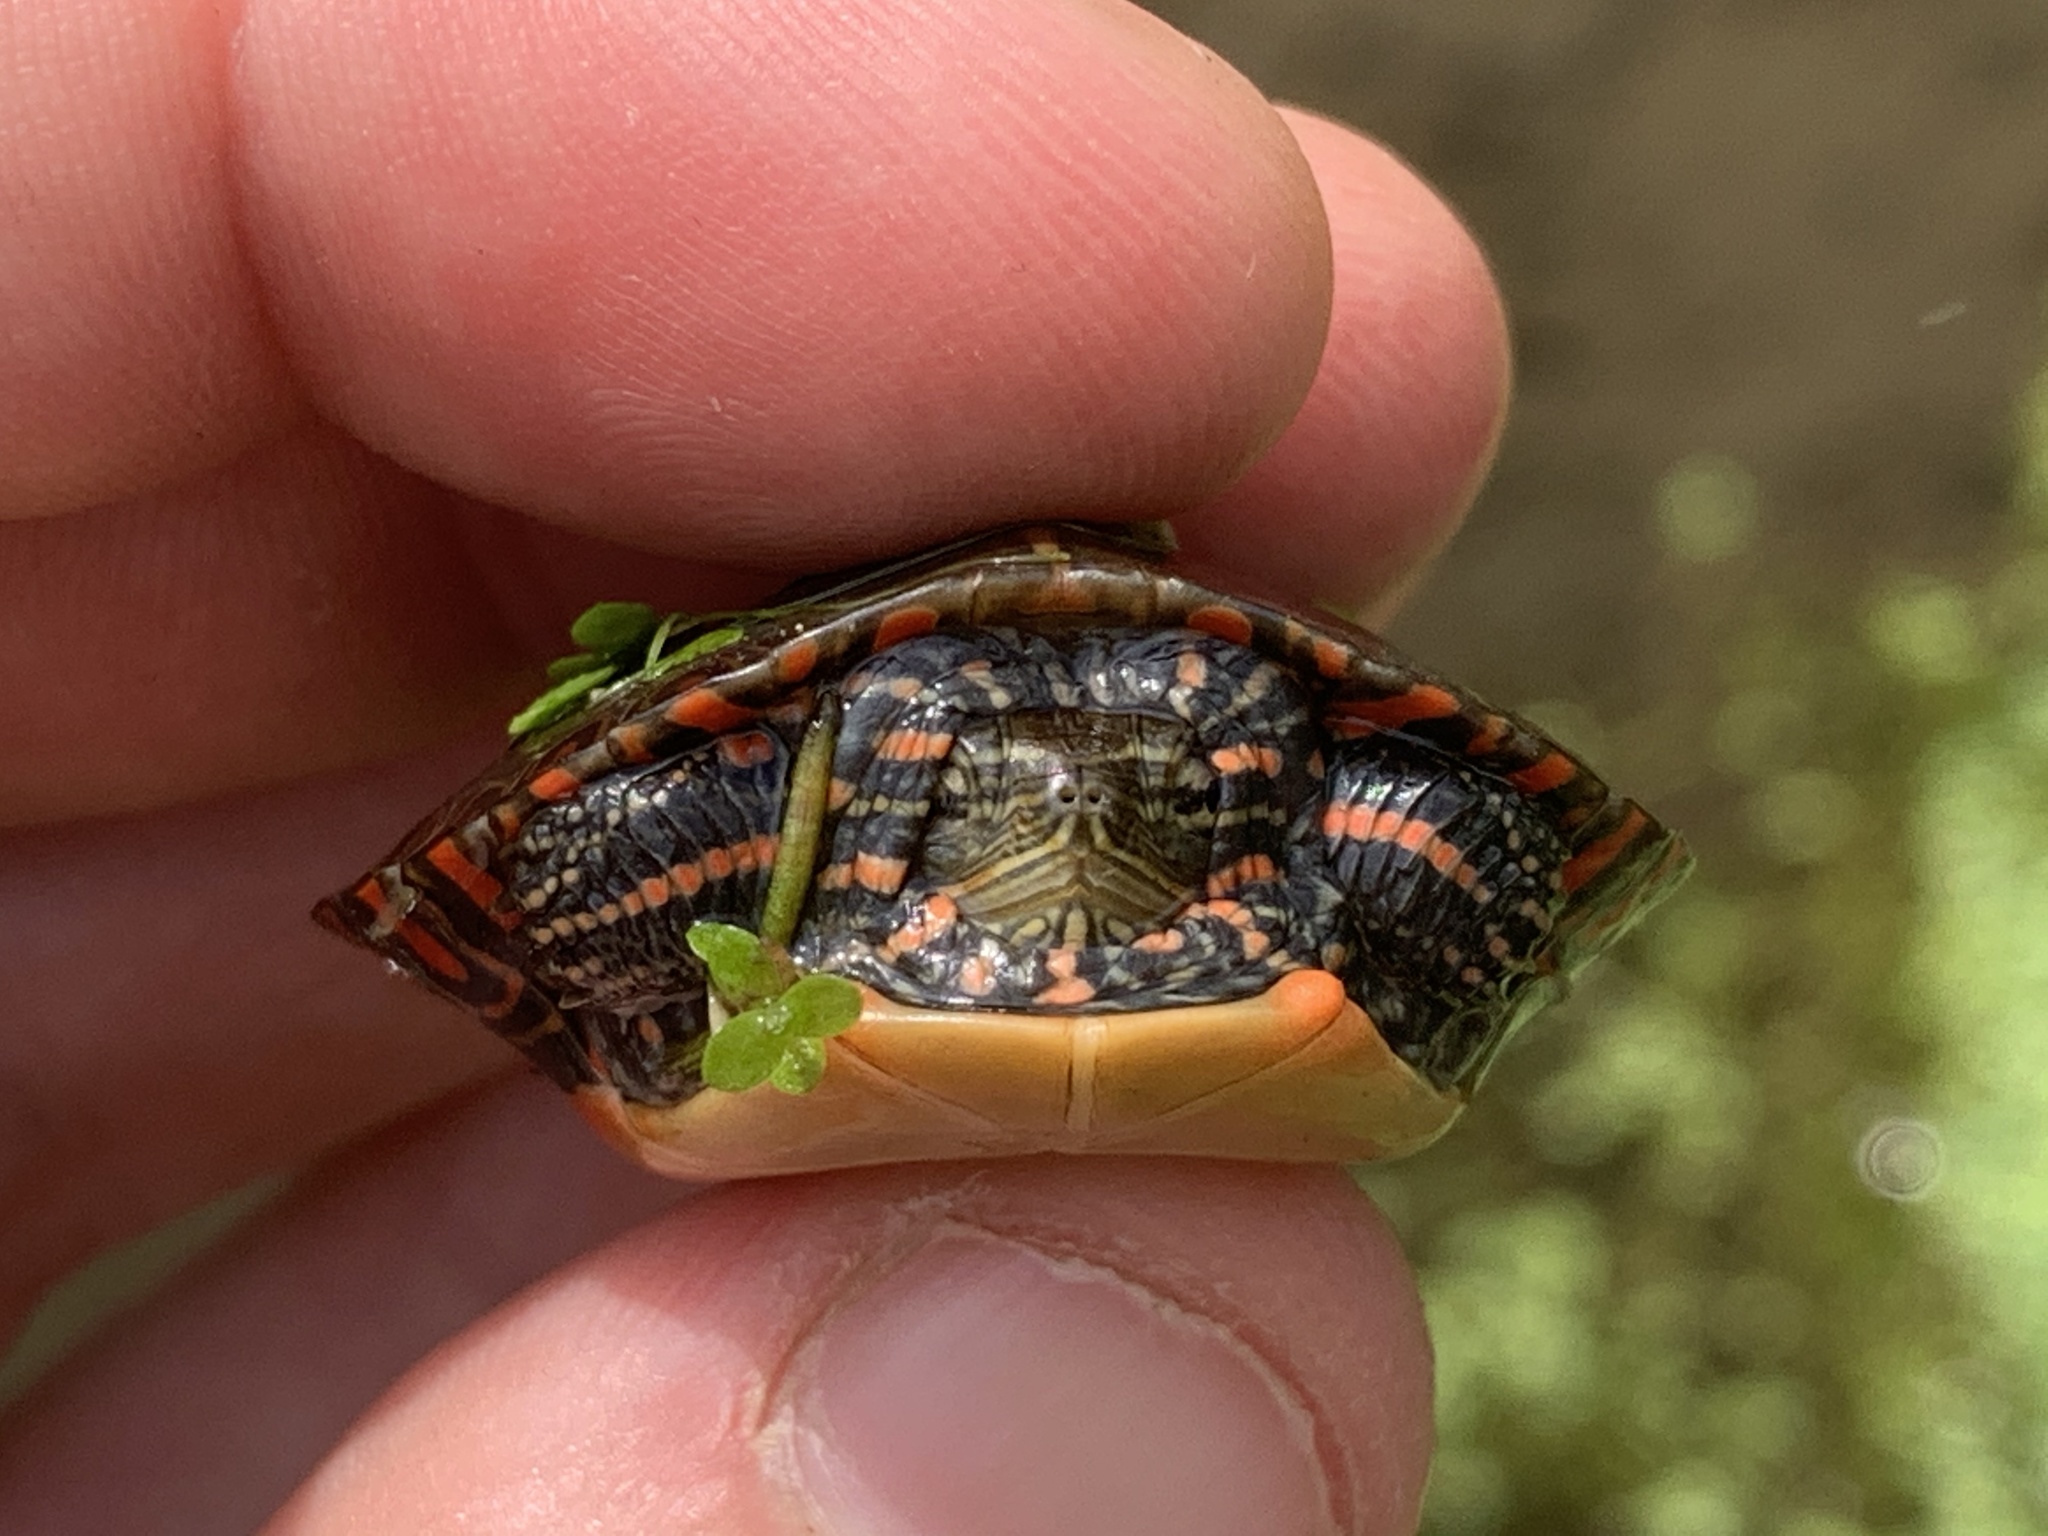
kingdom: Animalia
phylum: Chordata
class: Testudines
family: Emydidae
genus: Chrysemys
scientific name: Chrysemys picta
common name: Painted turtle
